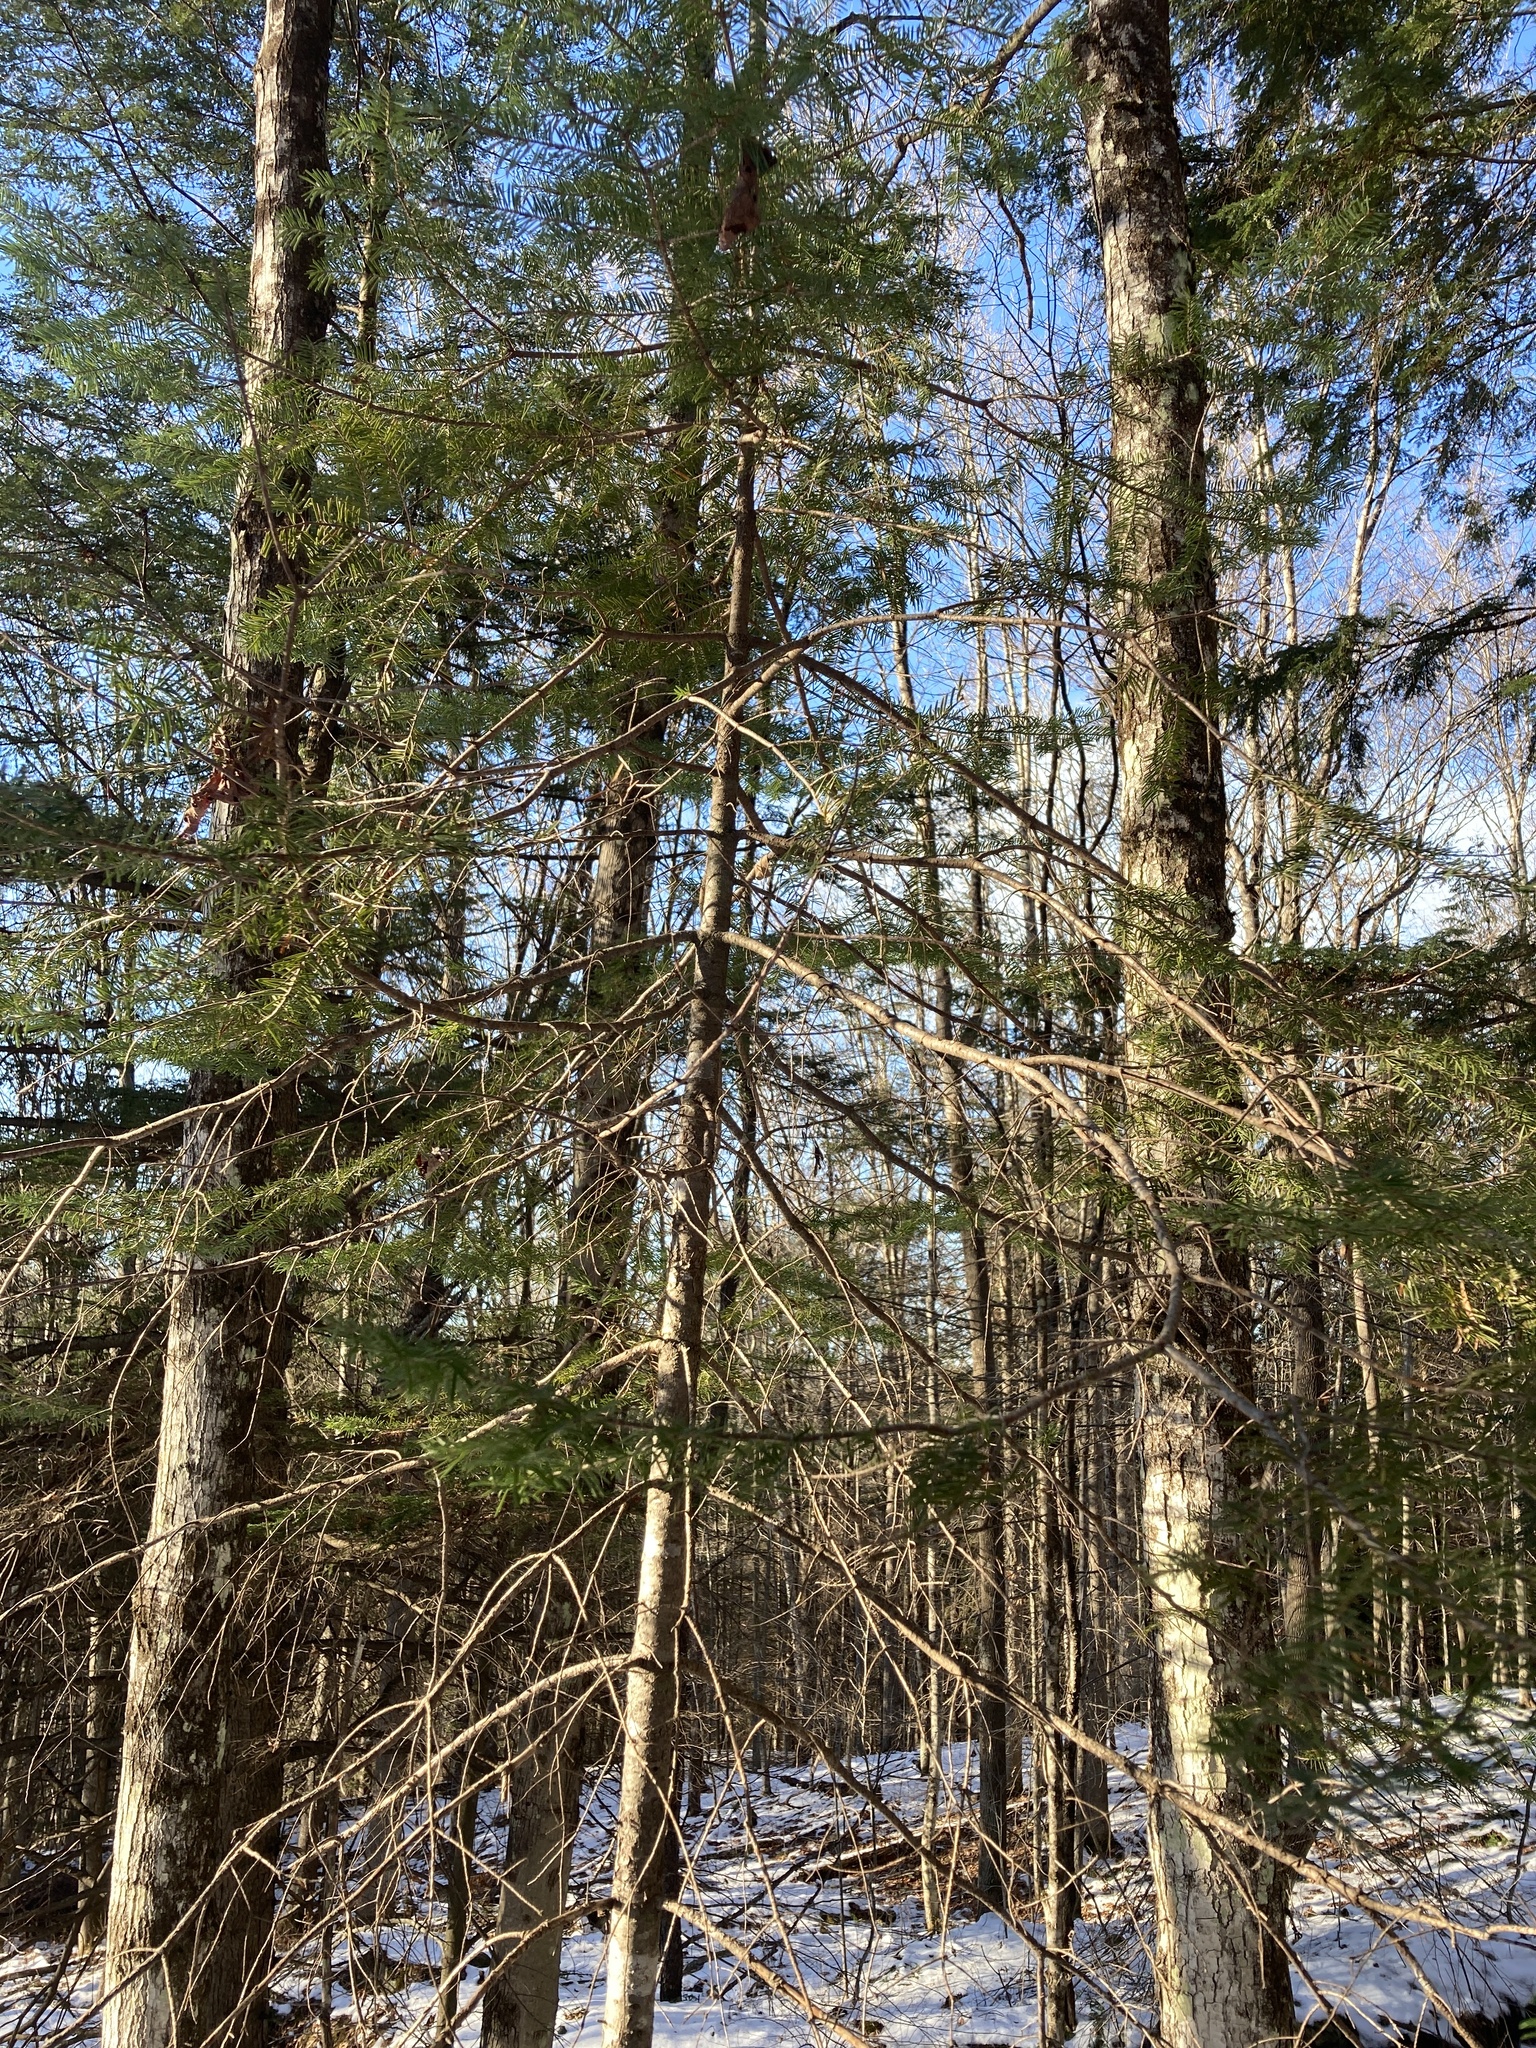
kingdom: Plantae
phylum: Tracheophyta
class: Pinopsida
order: Pinales
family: Pinaceae
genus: Abies
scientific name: Abies balsamea
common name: Balsam fir
